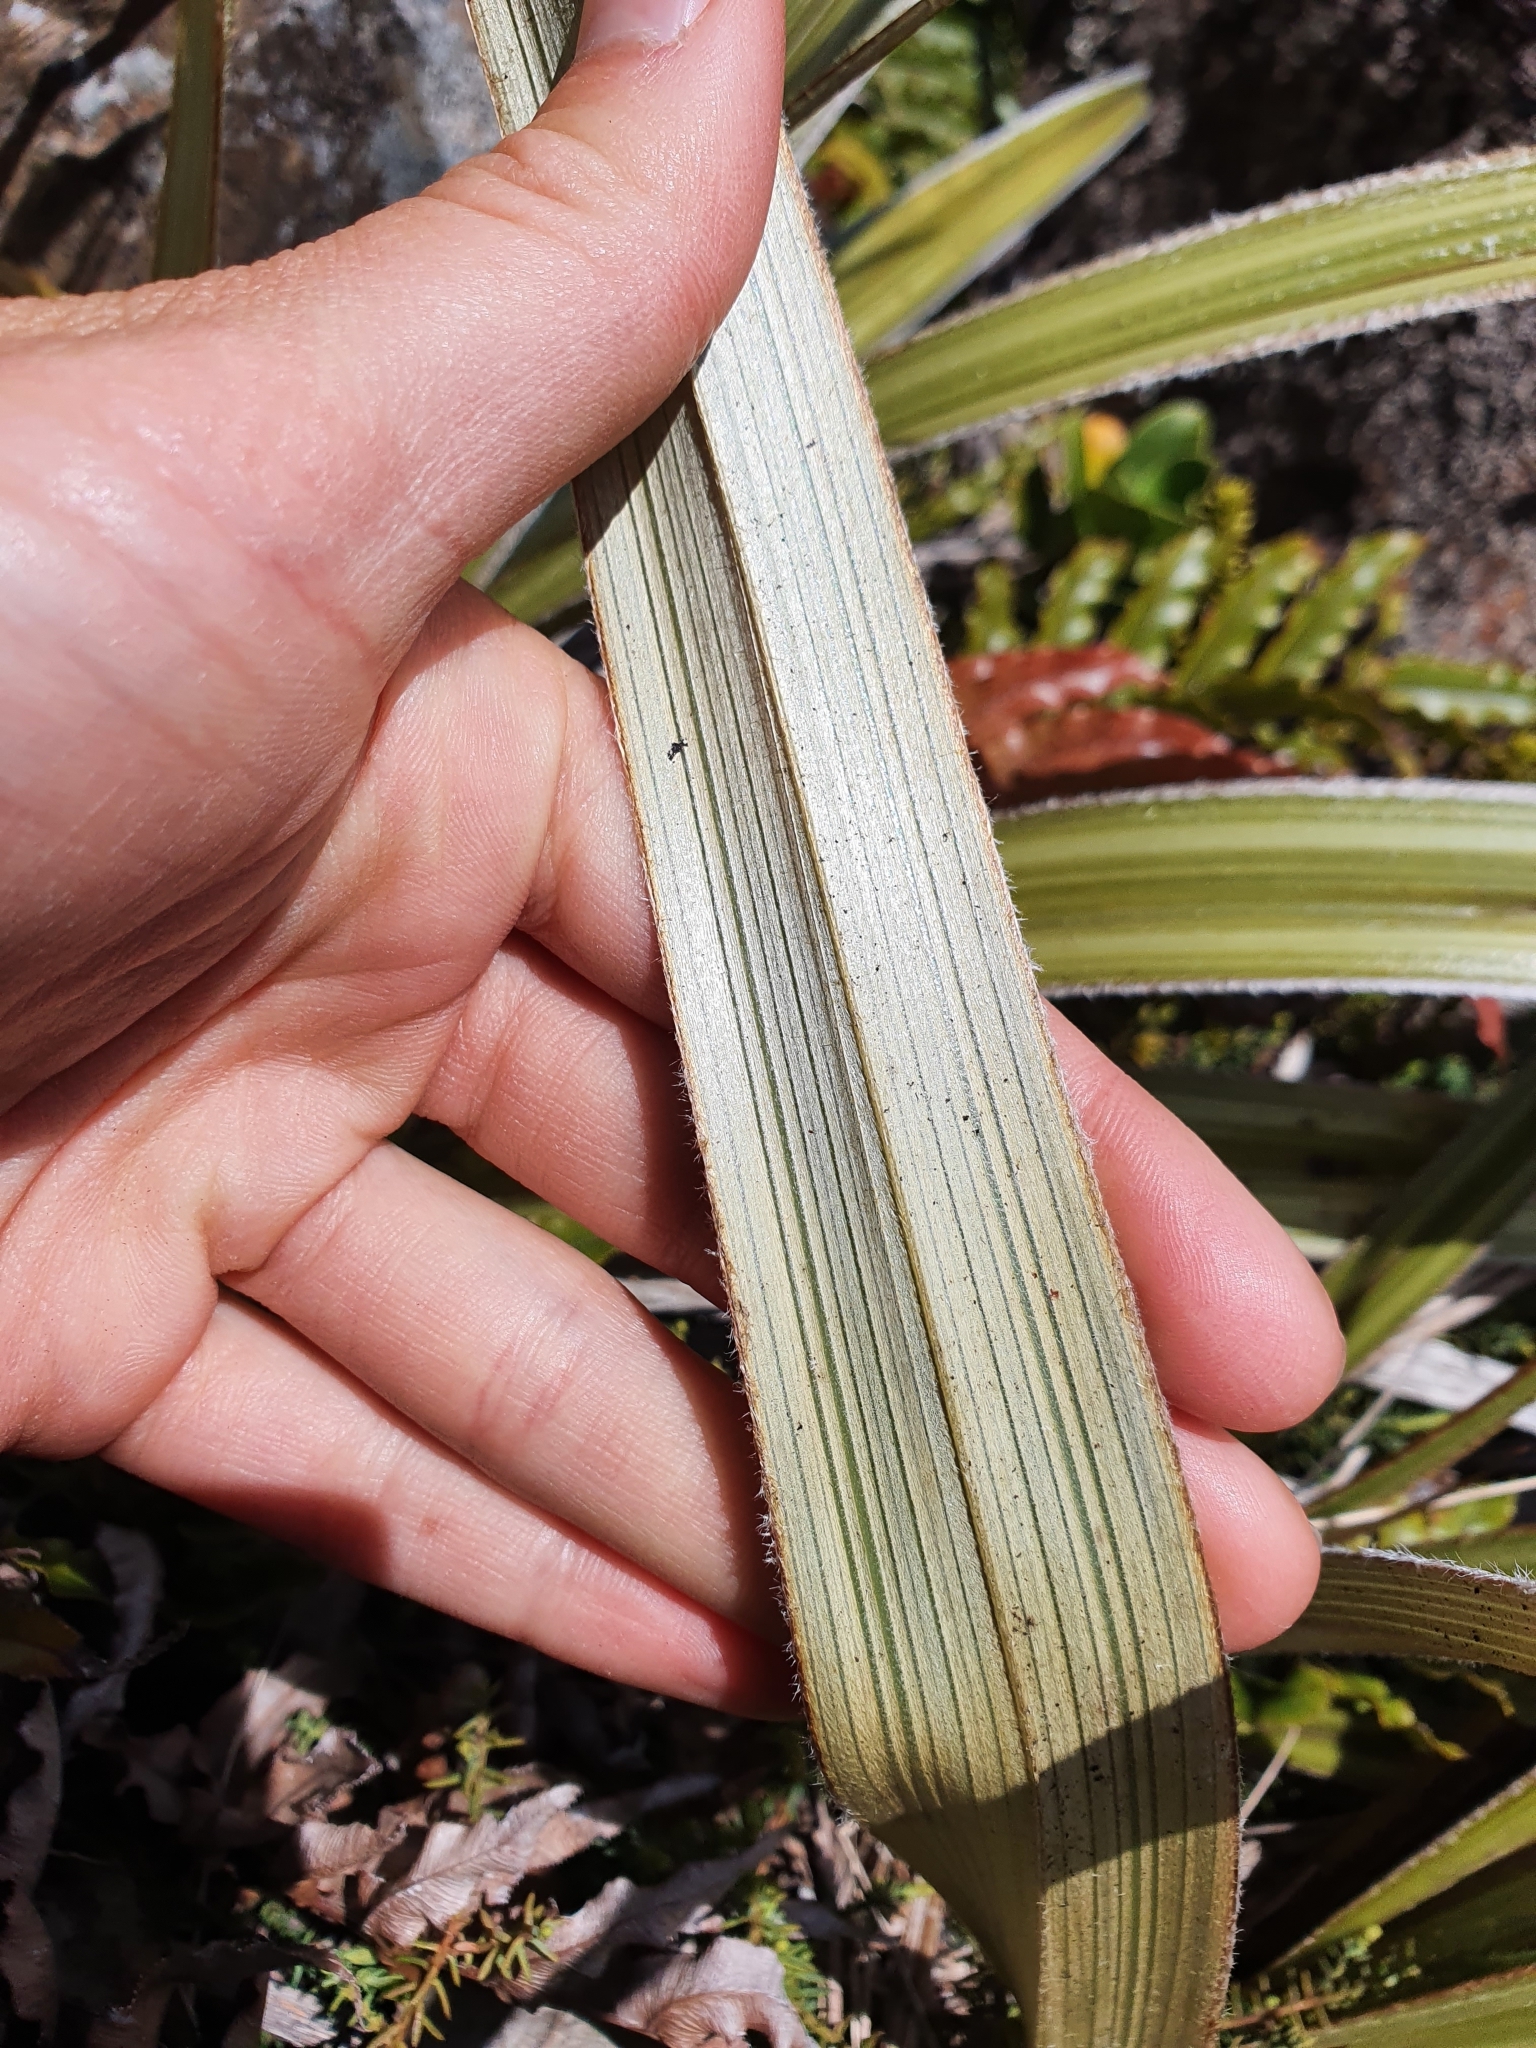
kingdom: Plantae
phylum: Tracheophyta
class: Liliopsida
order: Asparagales
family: Asteliaceae
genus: Astelia
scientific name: Astelia nervosa
